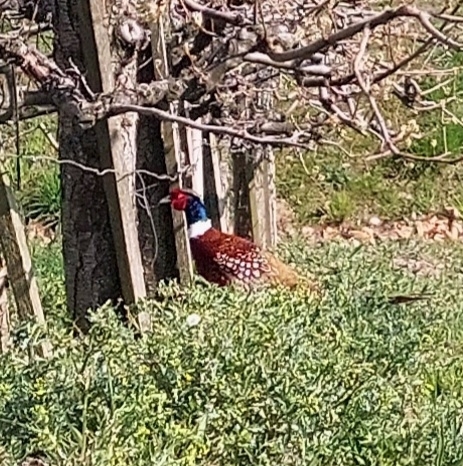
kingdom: Animalia
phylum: Chordata
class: Aves
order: Galliformes
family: Phasianidae
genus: Phasianus
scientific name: Phasianus colchicus
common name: Common pheasant
